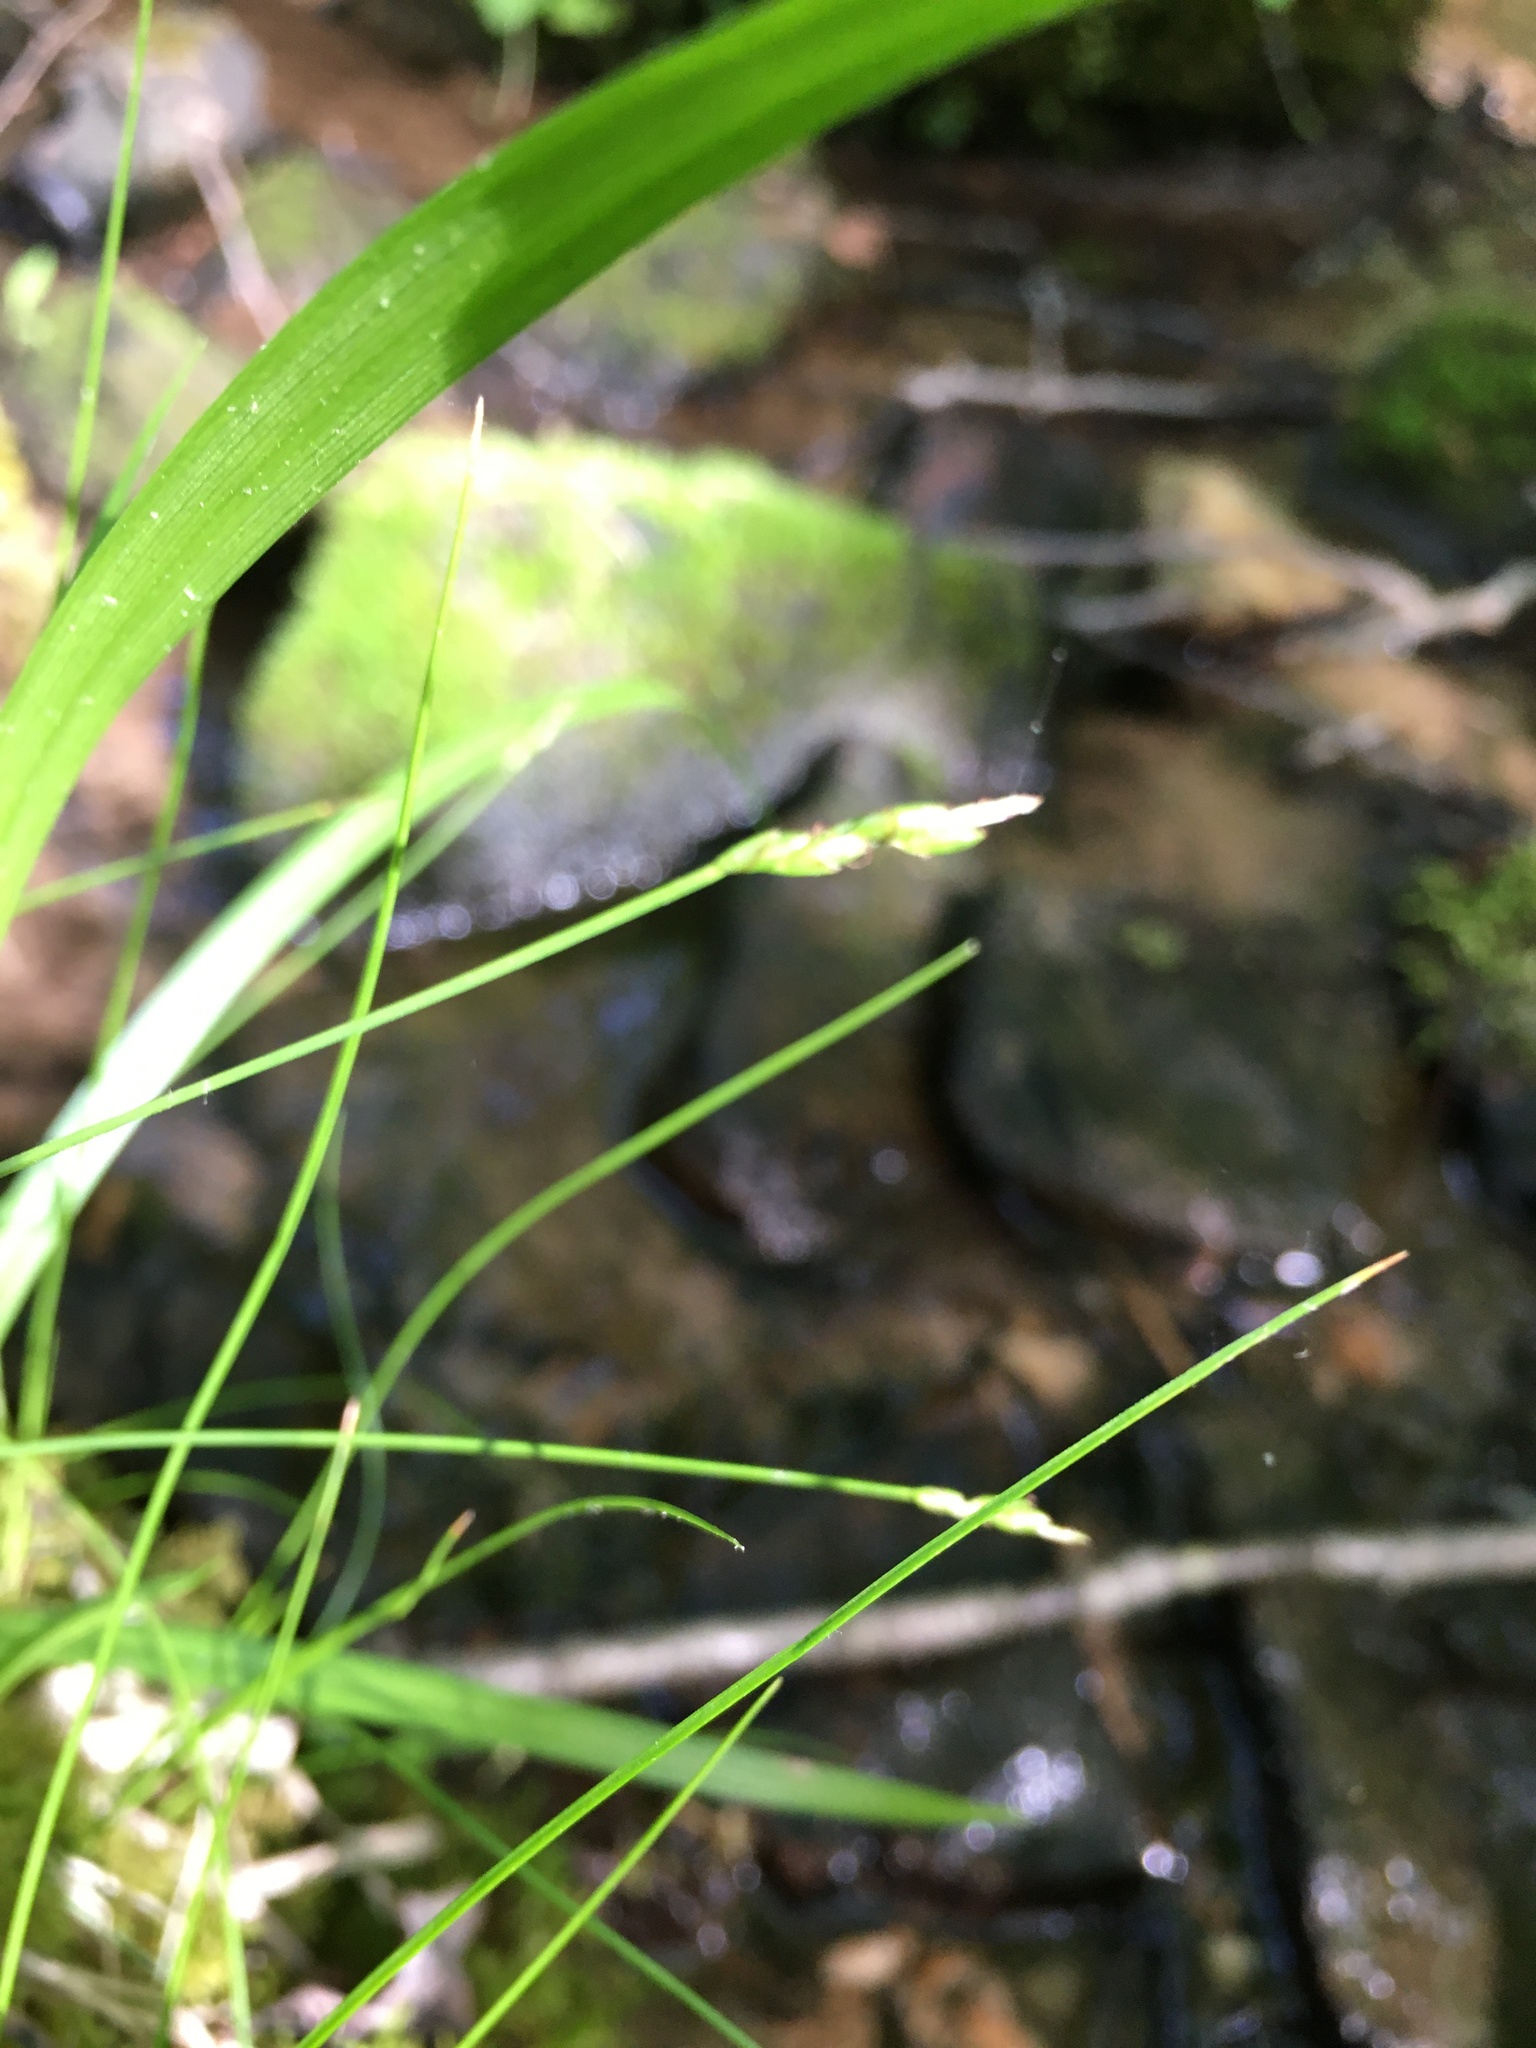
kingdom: Plantae
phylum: Tracheophyta
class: Liliopsida
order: Poales
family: Cyperaceae
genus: Carex
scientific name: Carex leptalea
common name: Bristly-stalked sedge
